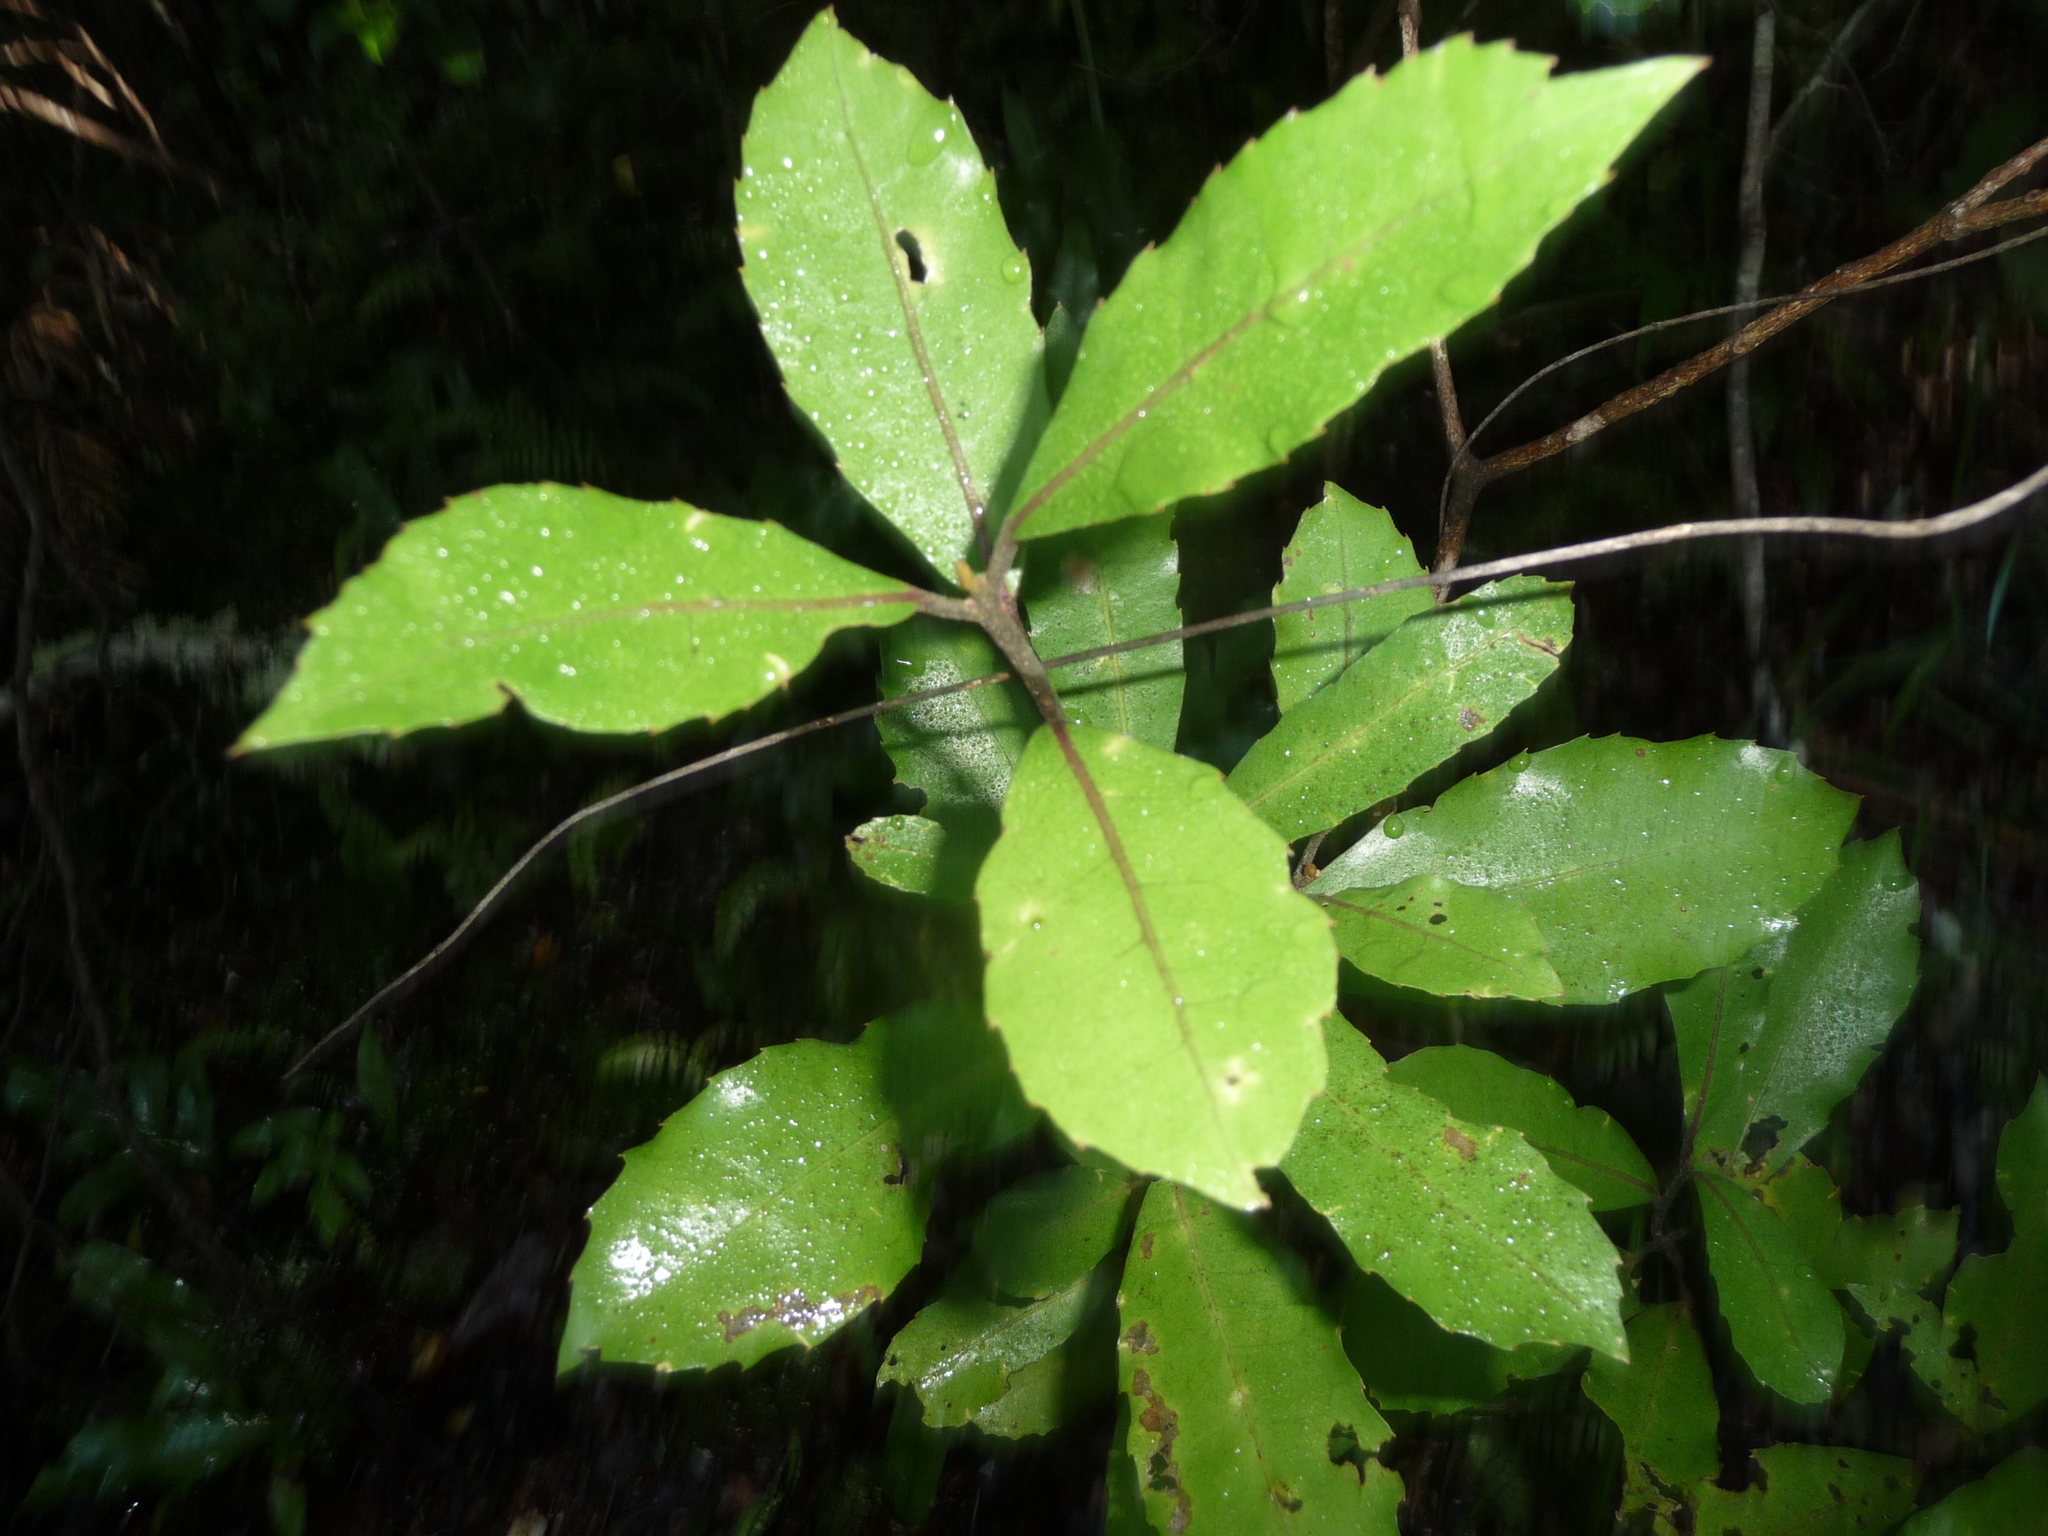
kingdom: Plantae
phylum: Tracheophyta
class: Magnoliopsida
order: Laurales
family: Monimiaceae
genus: Hedycarya
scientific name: Hedycarya arborea
